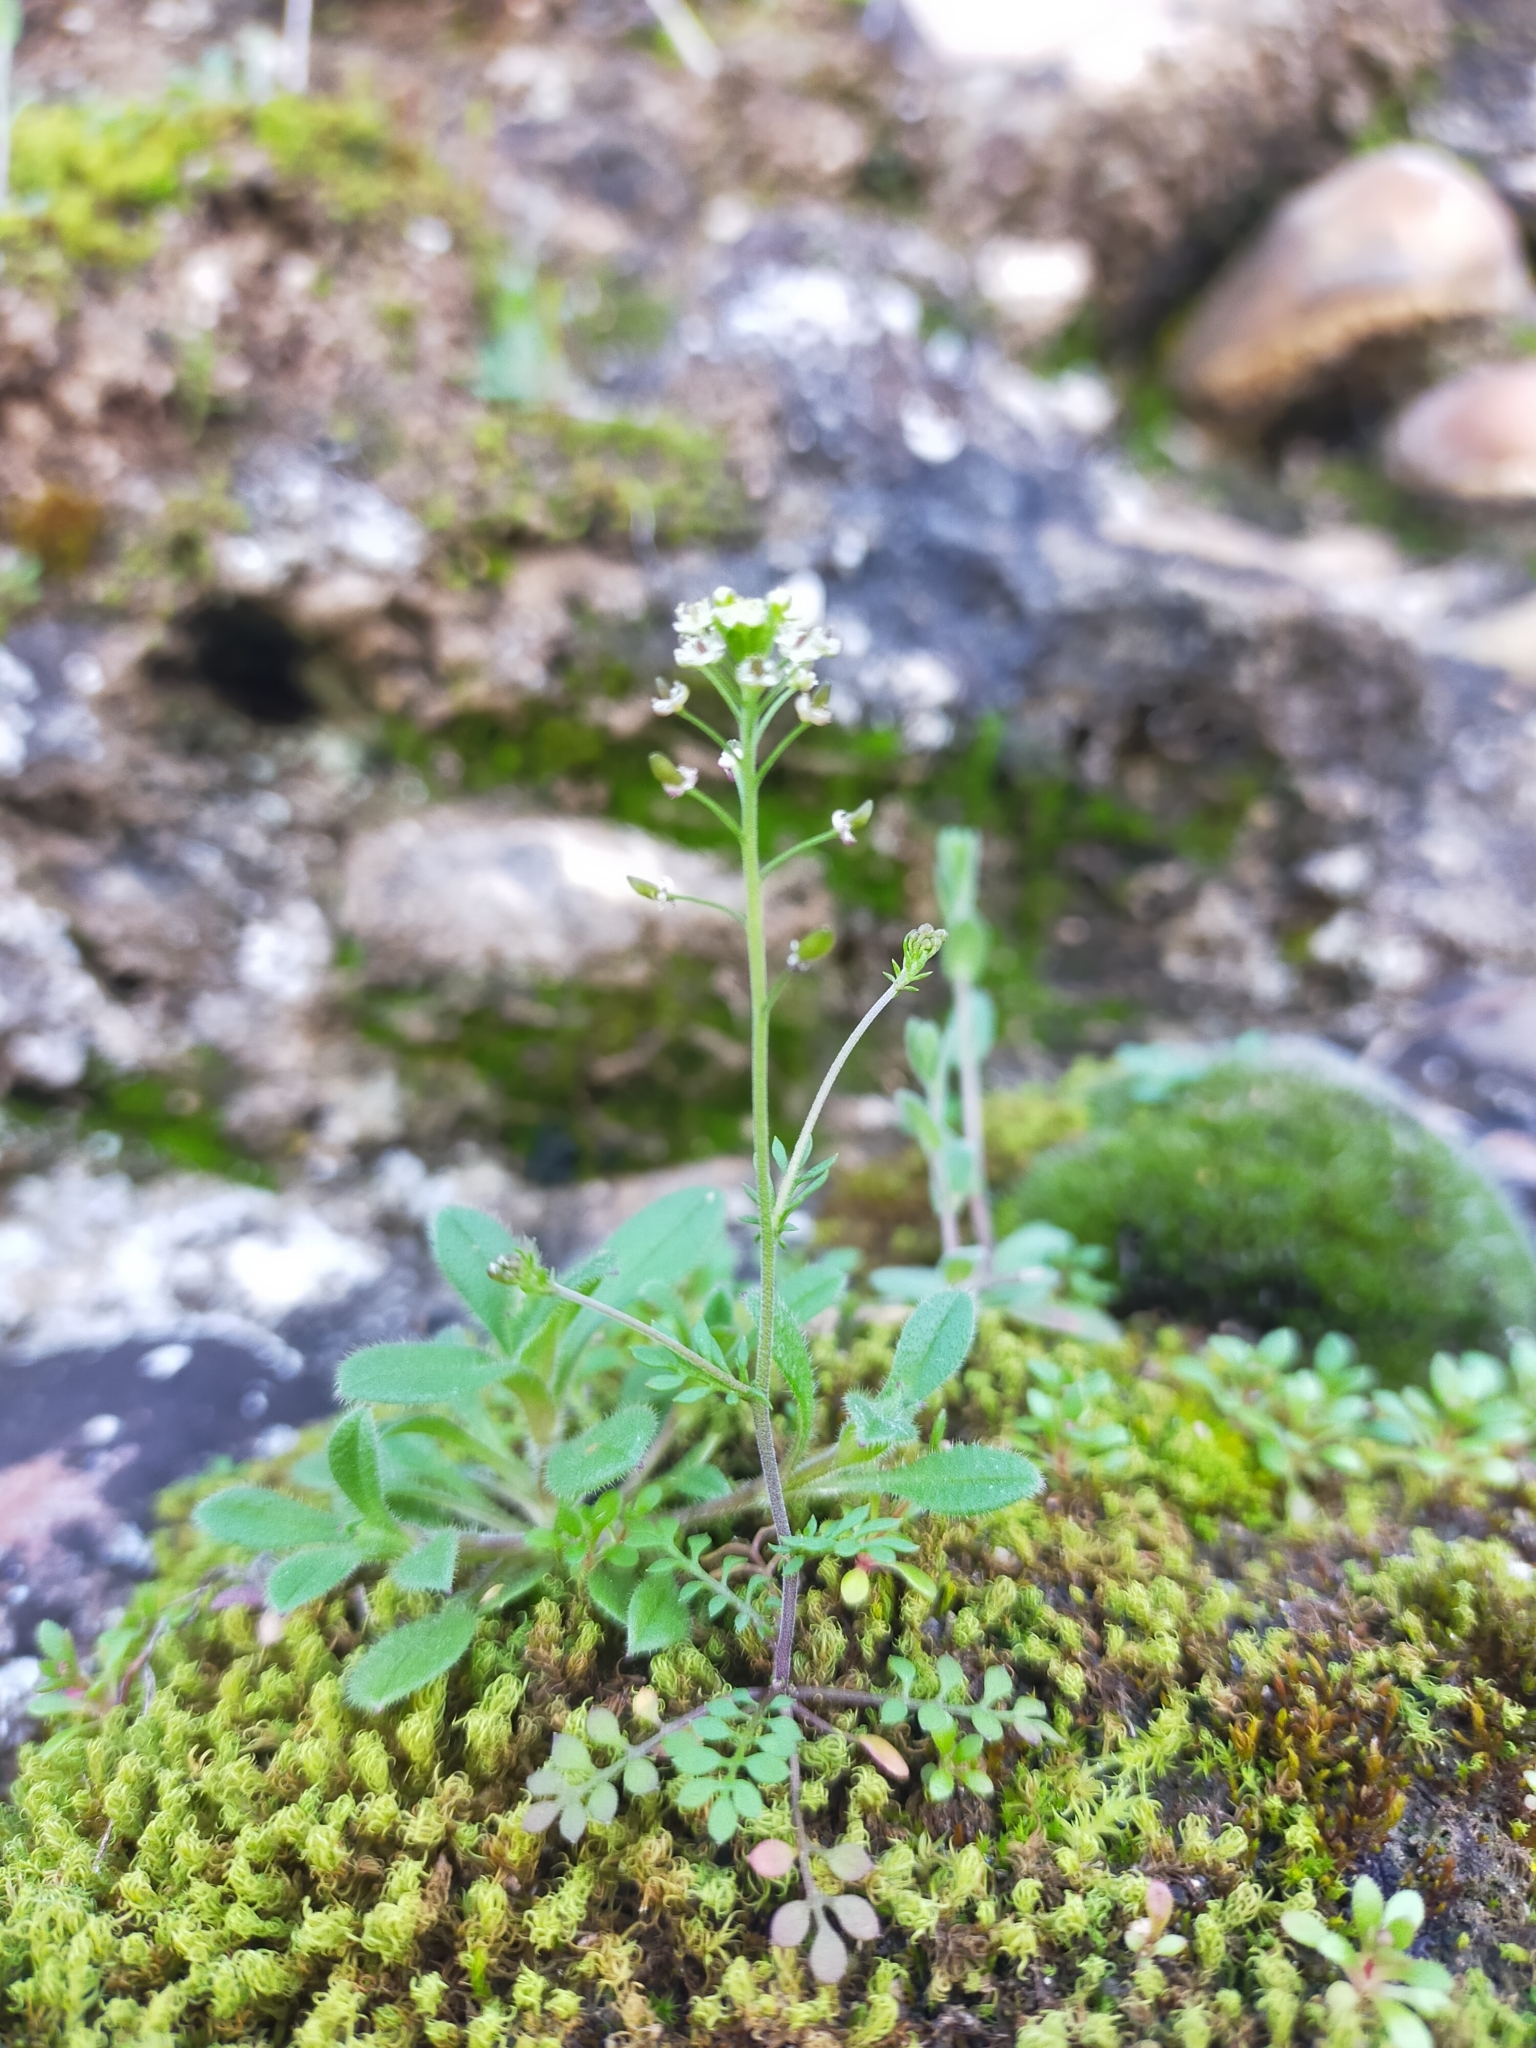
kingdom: Plantae
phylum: Tracheophyta
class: Magnoliopsida
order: Brassicales
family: Brassicaceae
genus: Hornungia
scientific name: Hornungia petraea
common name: Hutchinsia
